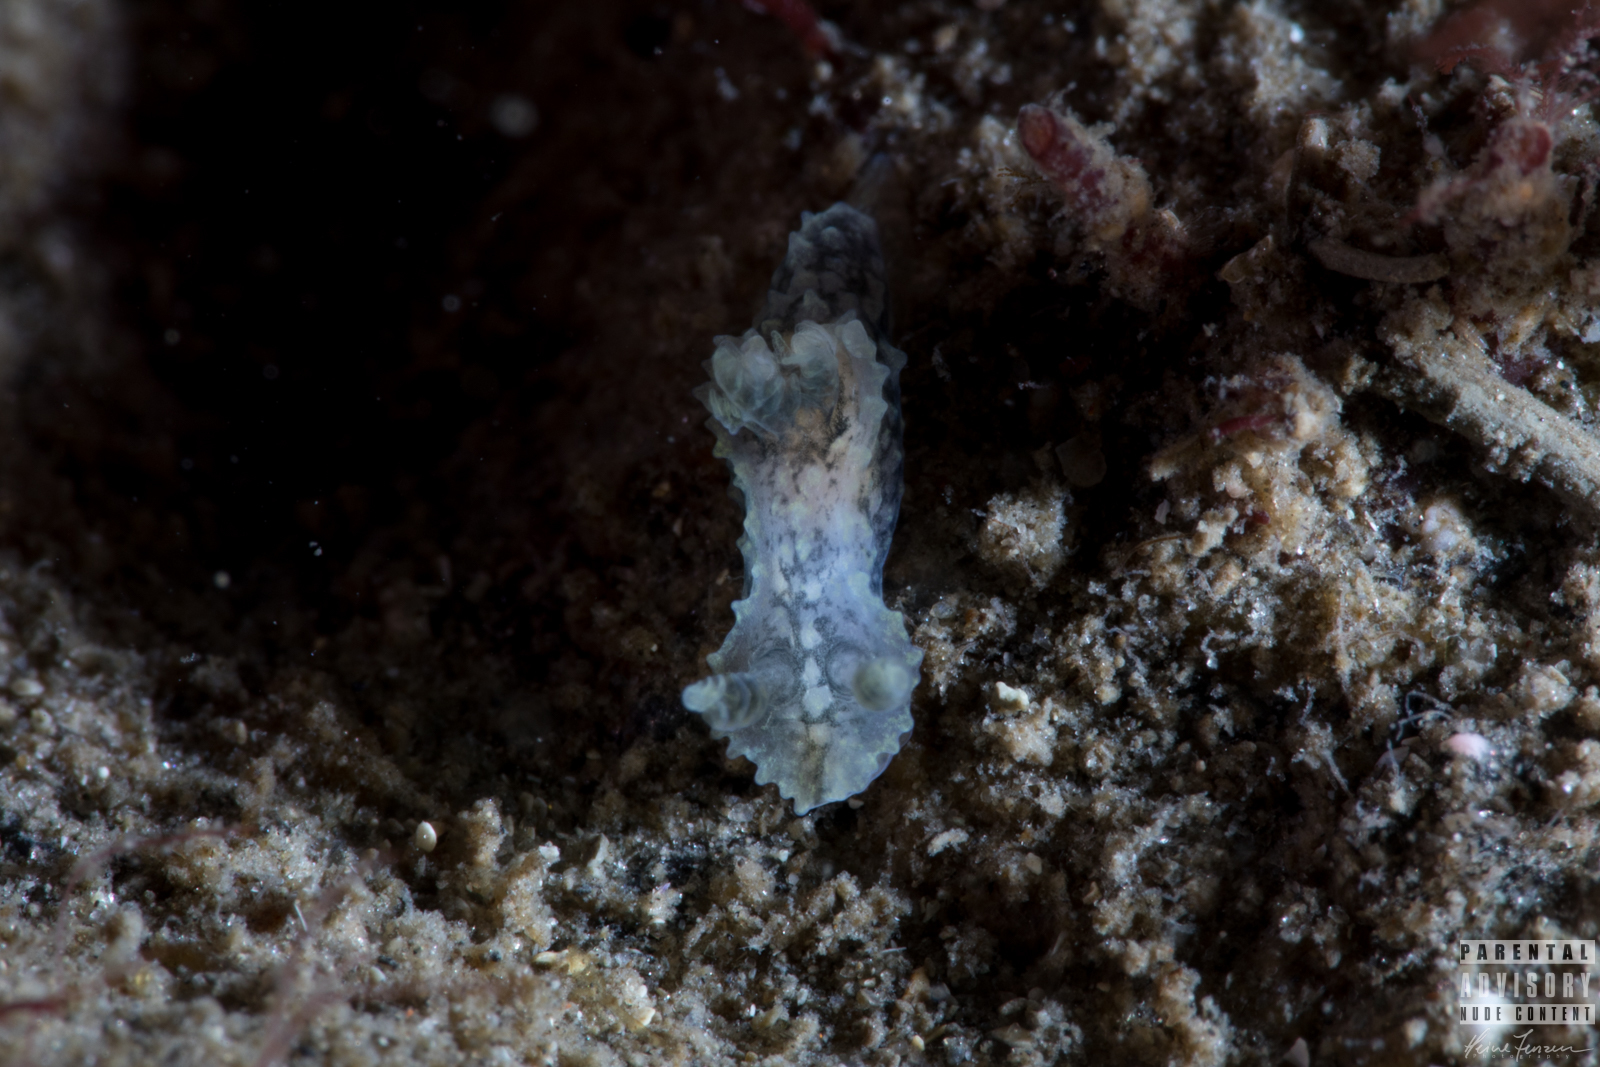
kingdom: Animalia
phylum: Mollusca
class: Gastropoda
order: Nudibranchia
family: Polyceridae
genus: Palio
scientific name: Palio nothus
